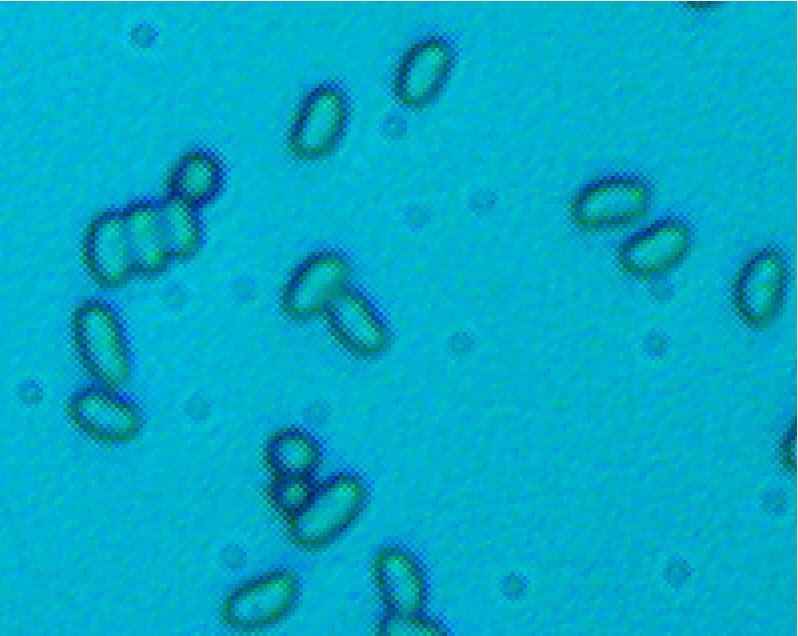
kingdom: Fungi
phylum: Basidiomycota
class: Agaricomycetes
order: Agaricales
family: Tricholomataceae
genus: Collybia
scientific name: Collybia
